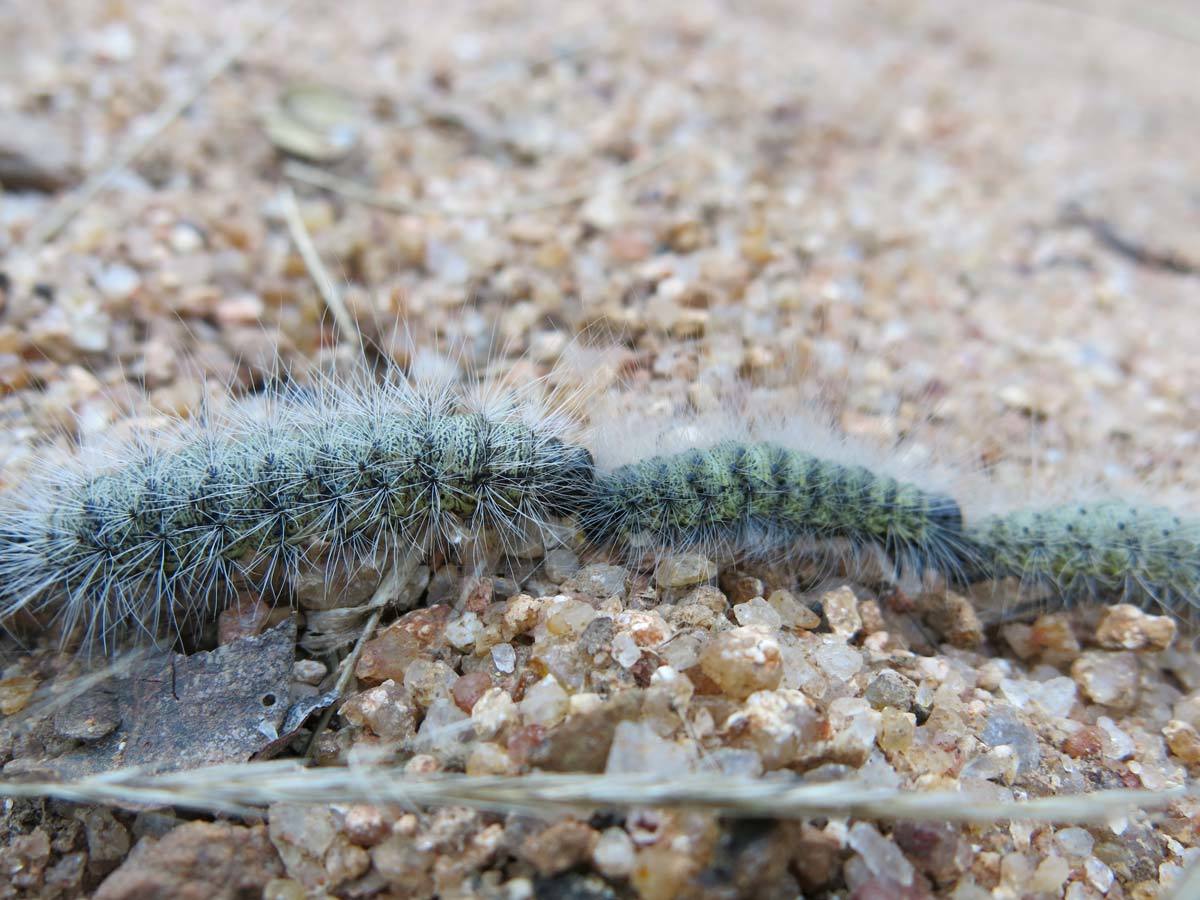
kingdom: Animalia
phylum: Arthropoda
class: Insecta
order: Lepidoptera
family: Notodontidae
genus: Anaphe
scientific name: Anaphe reticulata
